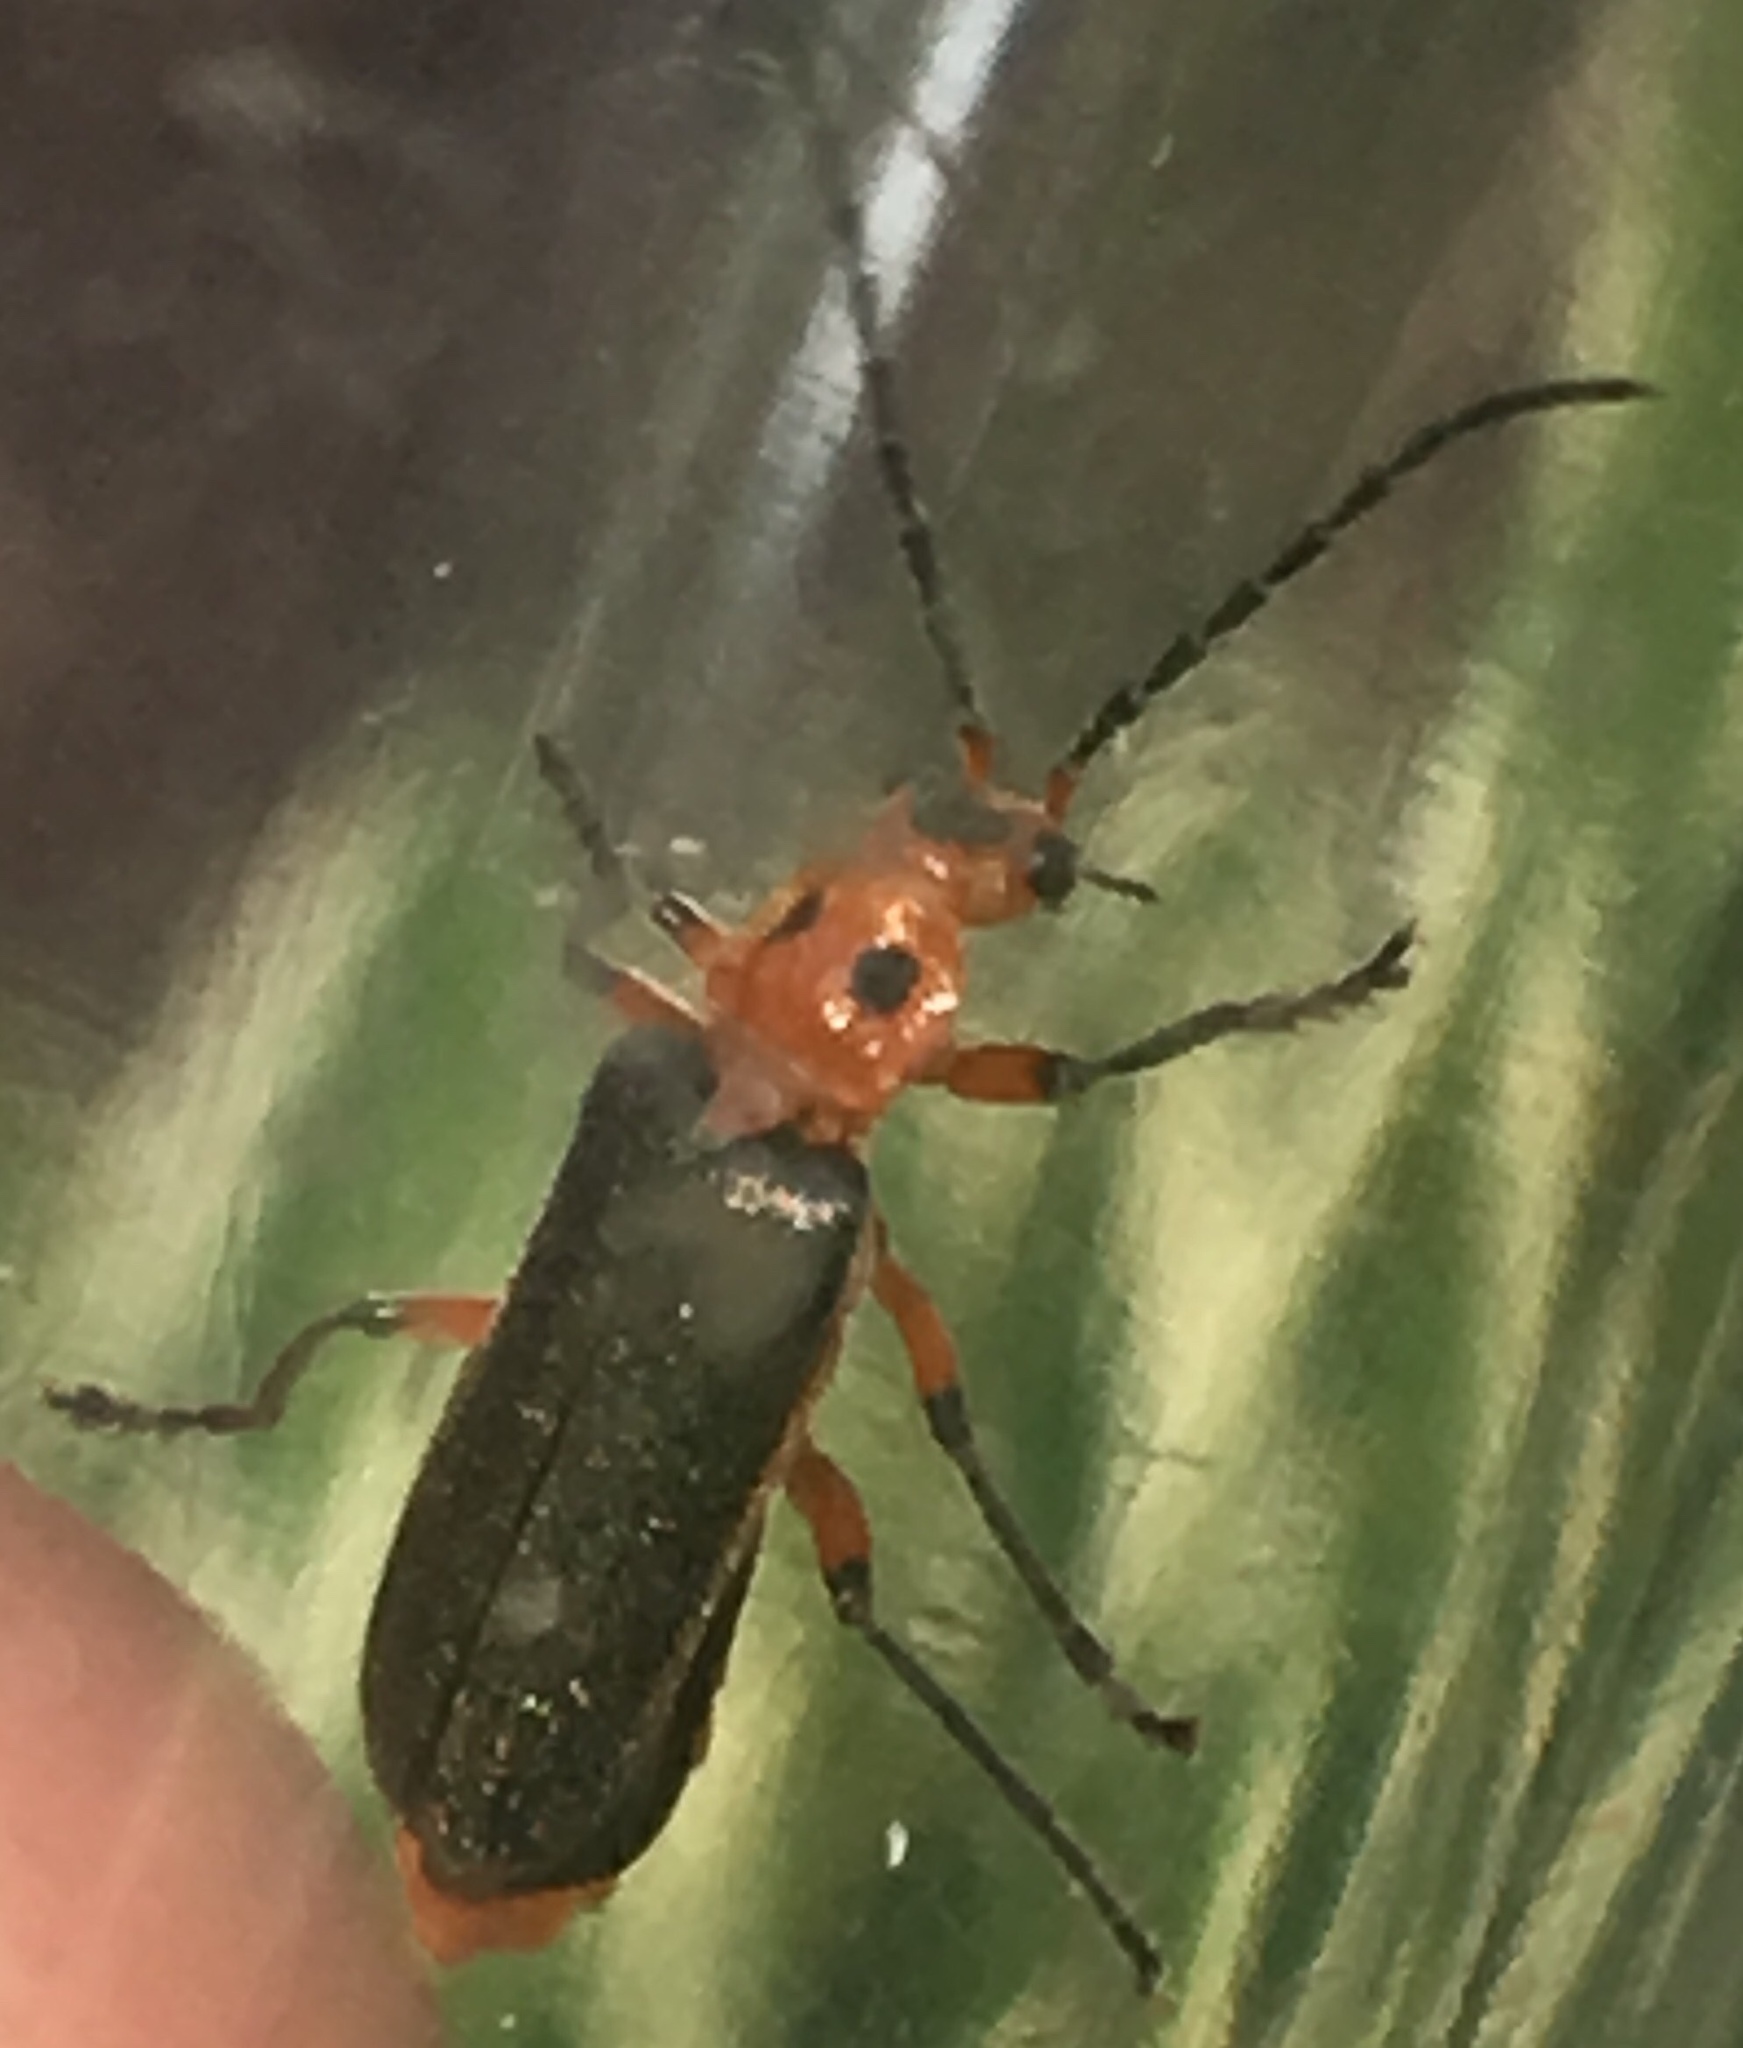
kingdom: Animalia
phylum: Arthropoda
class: Insecta
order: Coleoptera
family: Cantharidae
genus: Atalantycha
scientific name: Atalantycha bilineata
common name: Two-lined leatherwing
